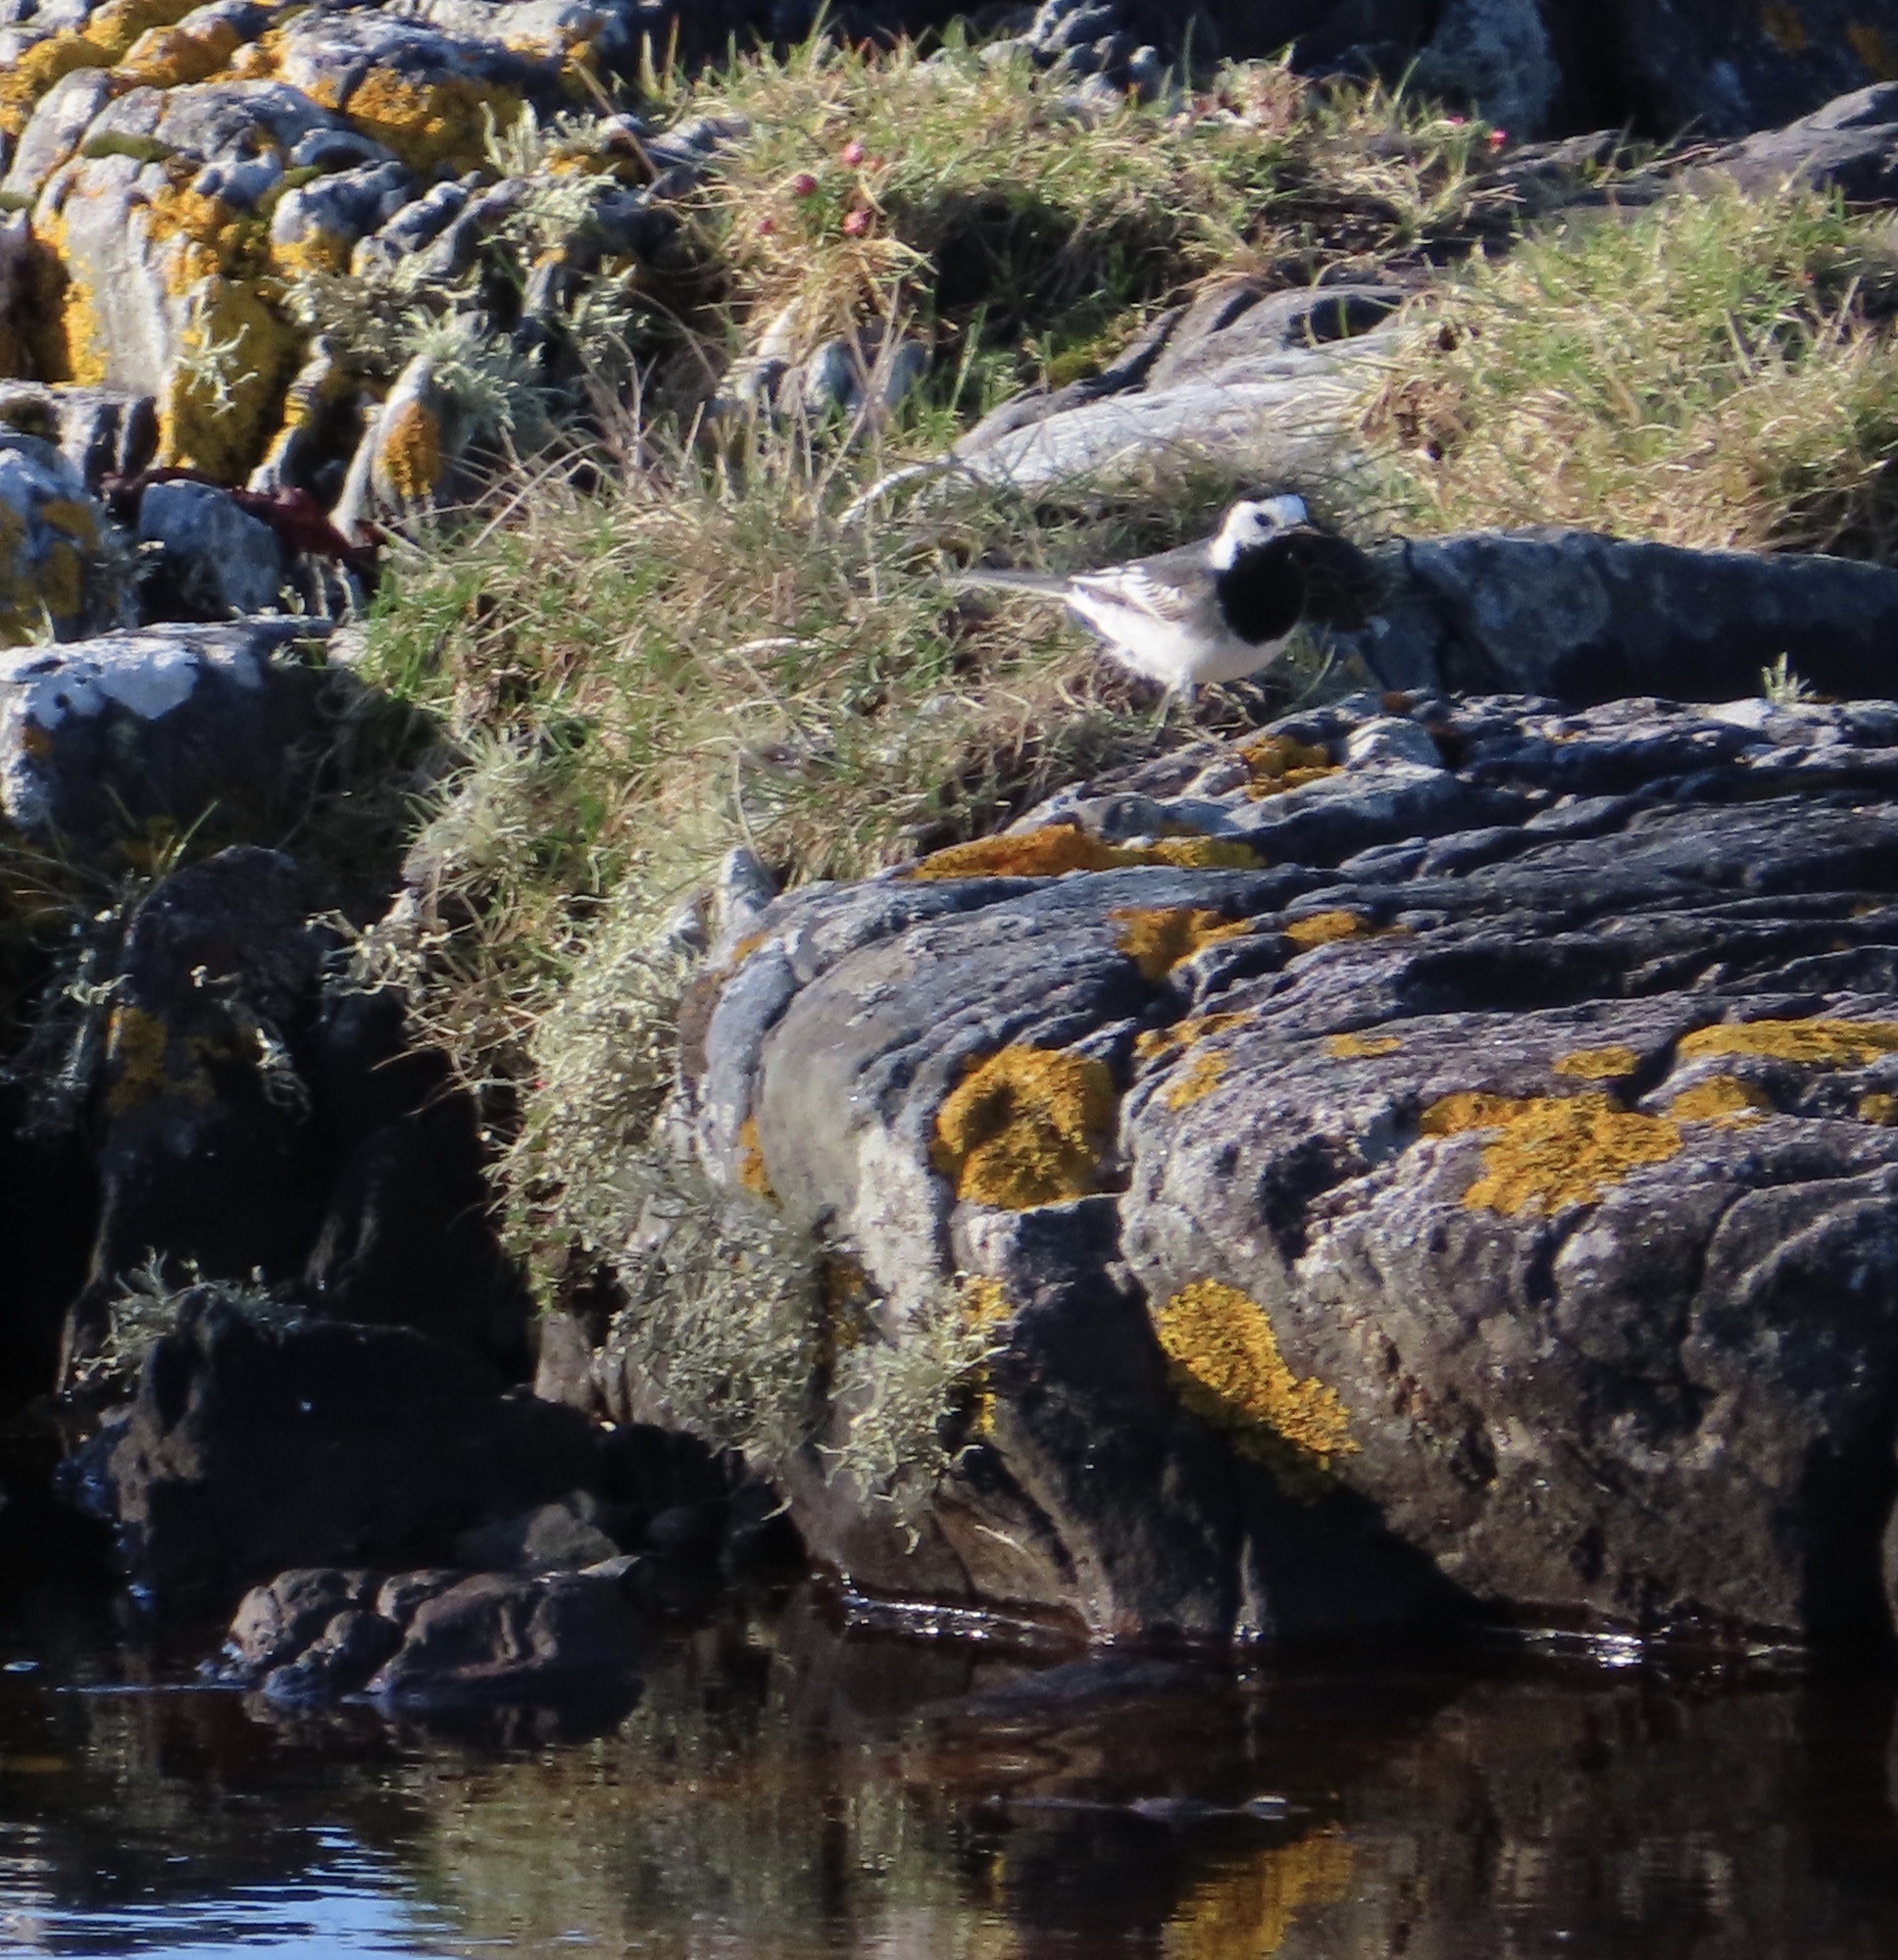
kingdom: Animalia
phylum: Chordata
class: Aves
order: Passeriformes
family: Motacillidae
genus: Motacilla
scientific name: Motacilla alba
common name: White wagtail
